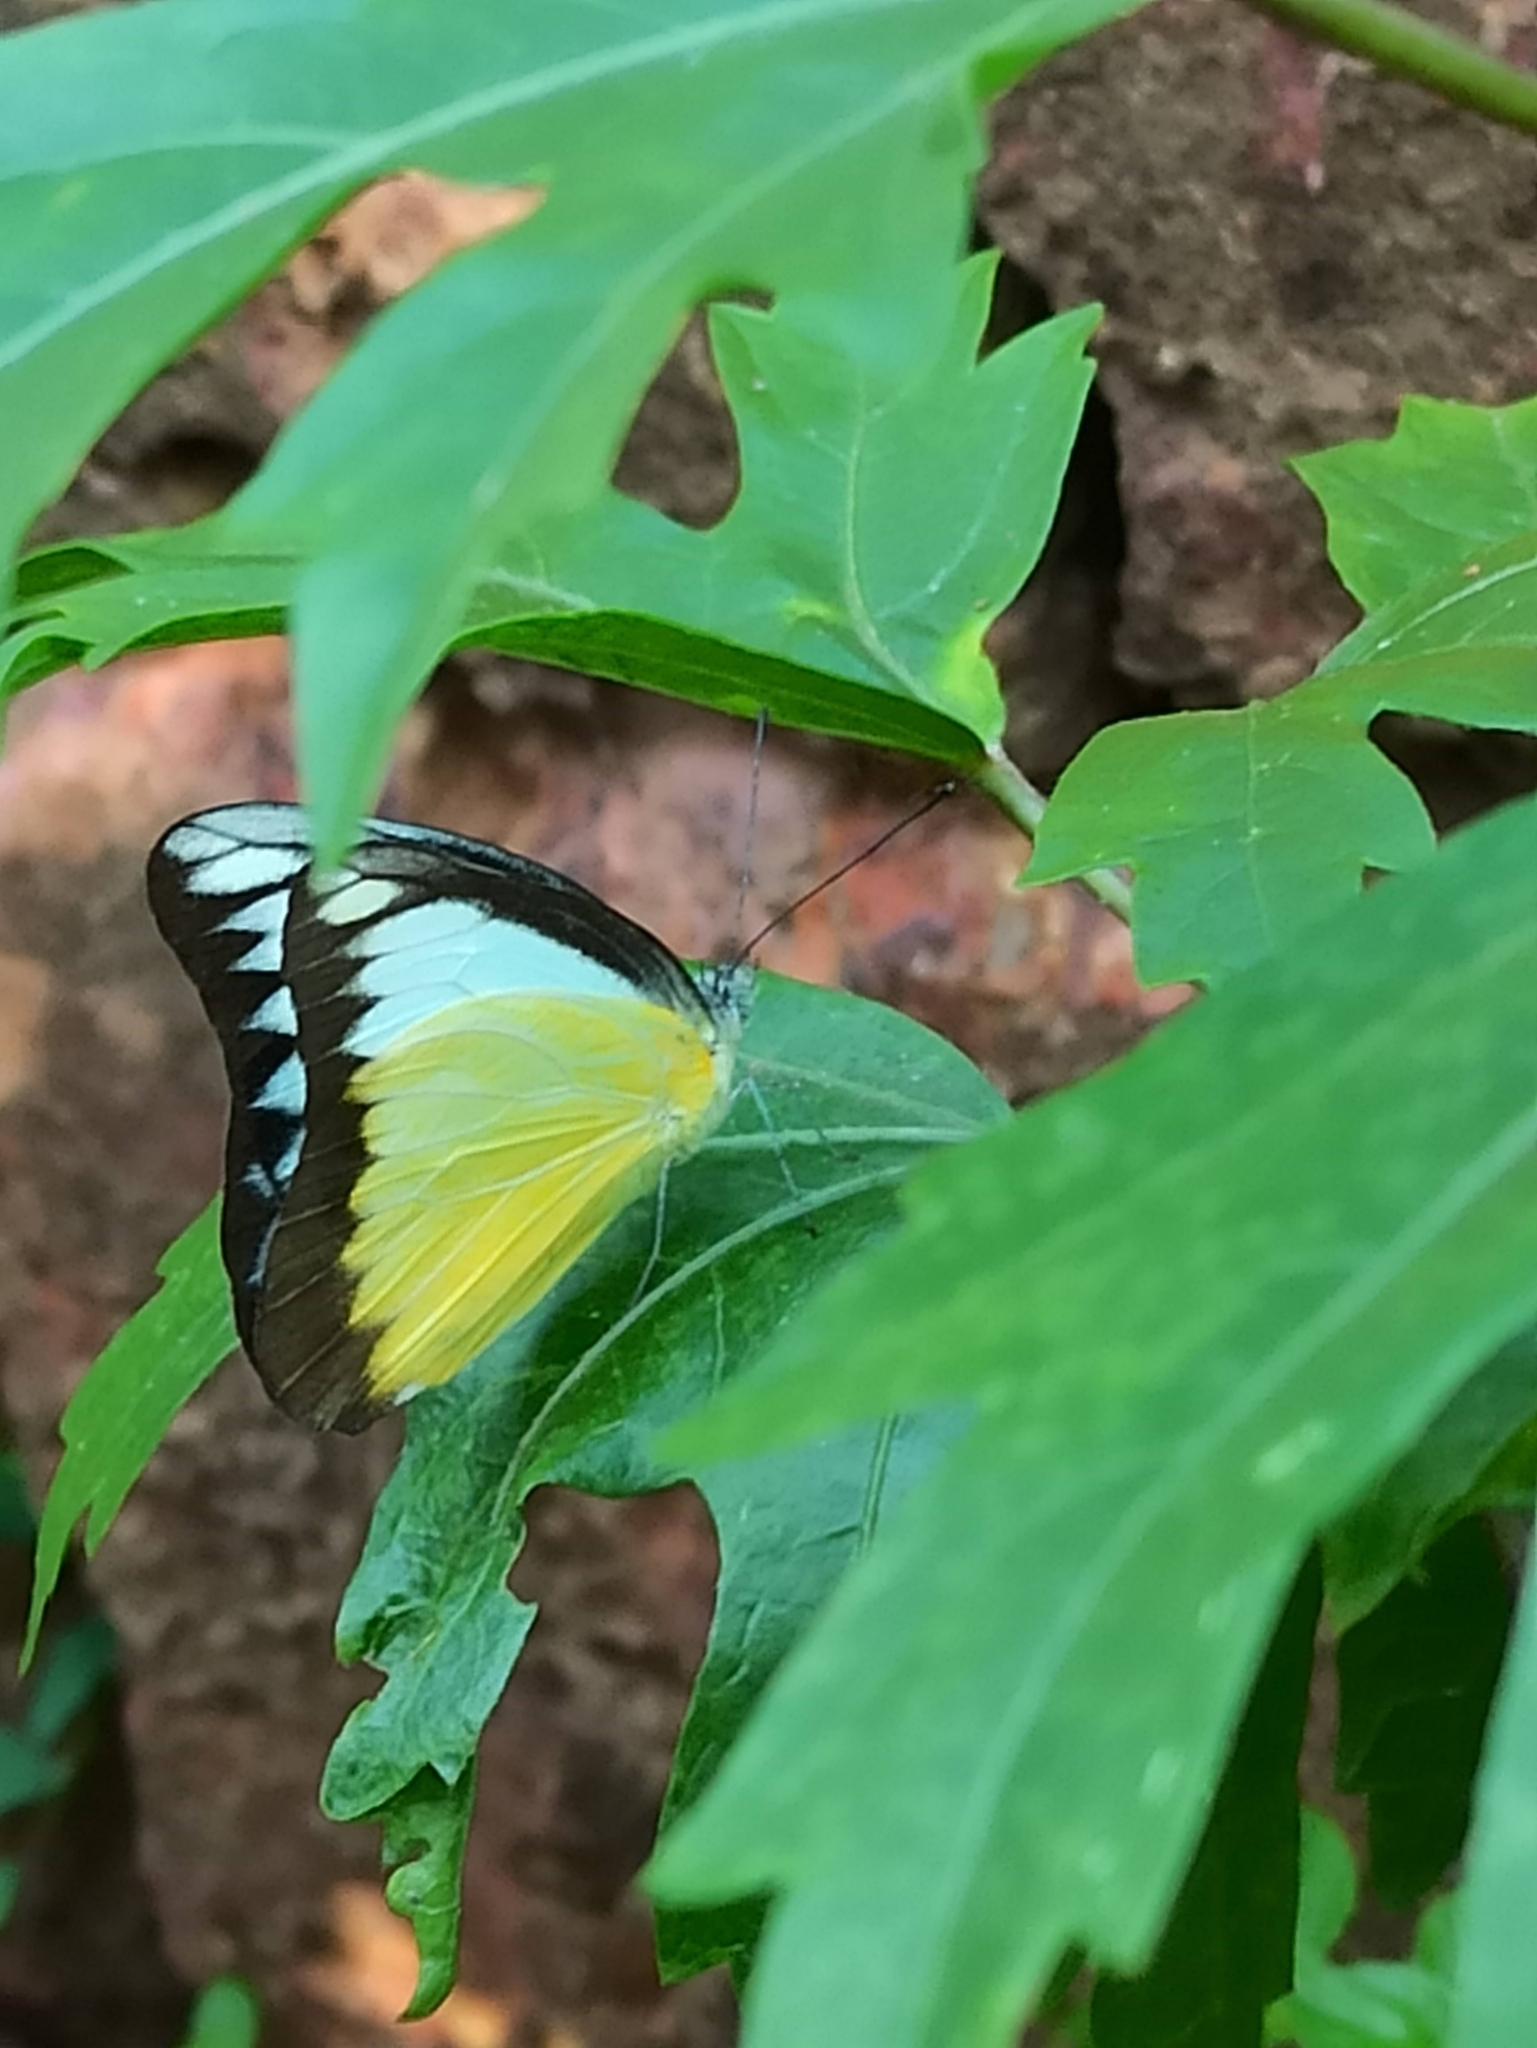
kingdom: Animalia
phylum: Arthropoda
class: Insecta
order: Lepidoptera
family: Pieridae
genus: Appias
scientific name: Appias lyncida
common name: Chocolate albatross
